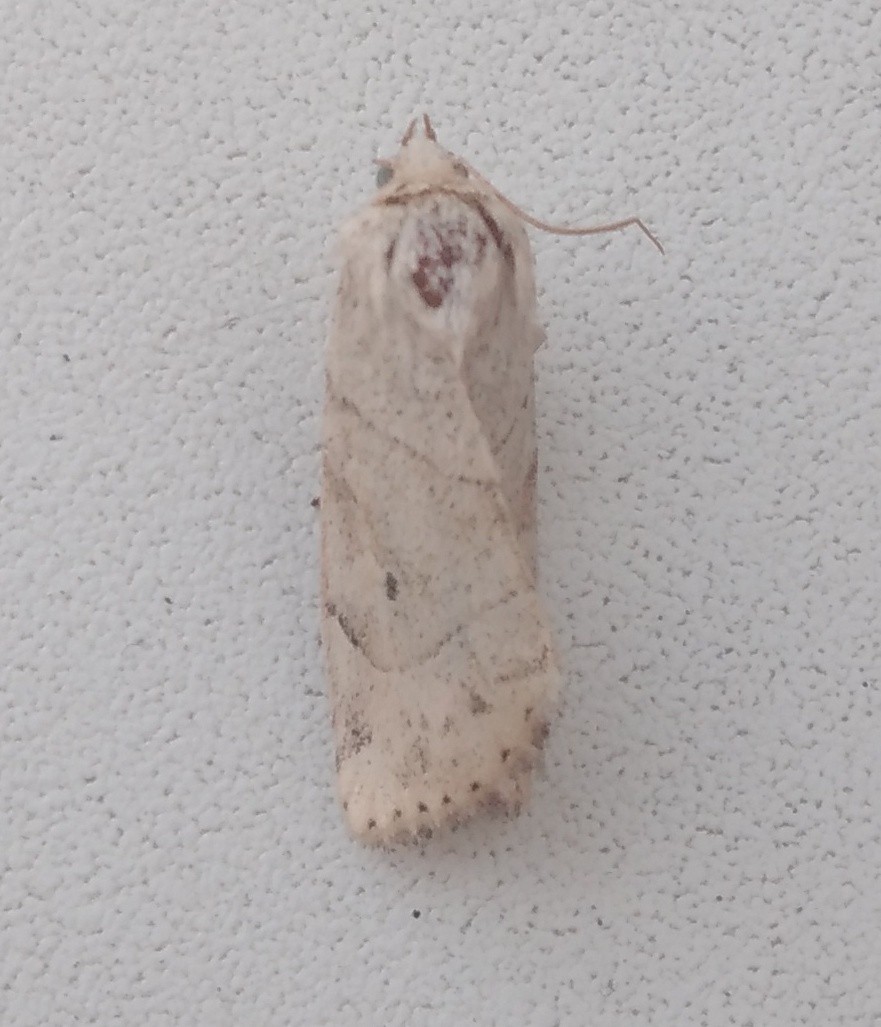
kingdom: Animalia
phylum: Arthropoda
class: Insecta
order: Lepidoptera
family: Noctuidae
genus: Cosmia
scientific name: Cosmia trapezina
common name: Dun-bar
